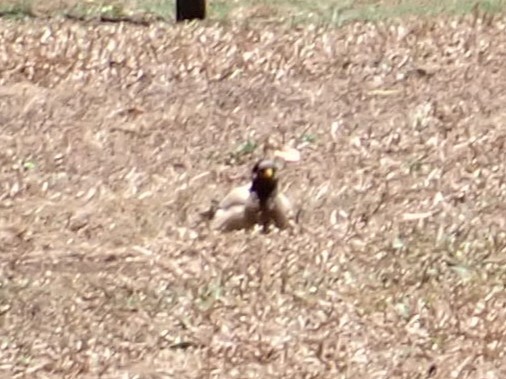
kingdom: Animalia
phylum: Chordata
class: Aves
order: Passeriformes
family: Sturnidae
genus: Acridotheres
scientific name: Acridotheres tristis
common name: Common myna
